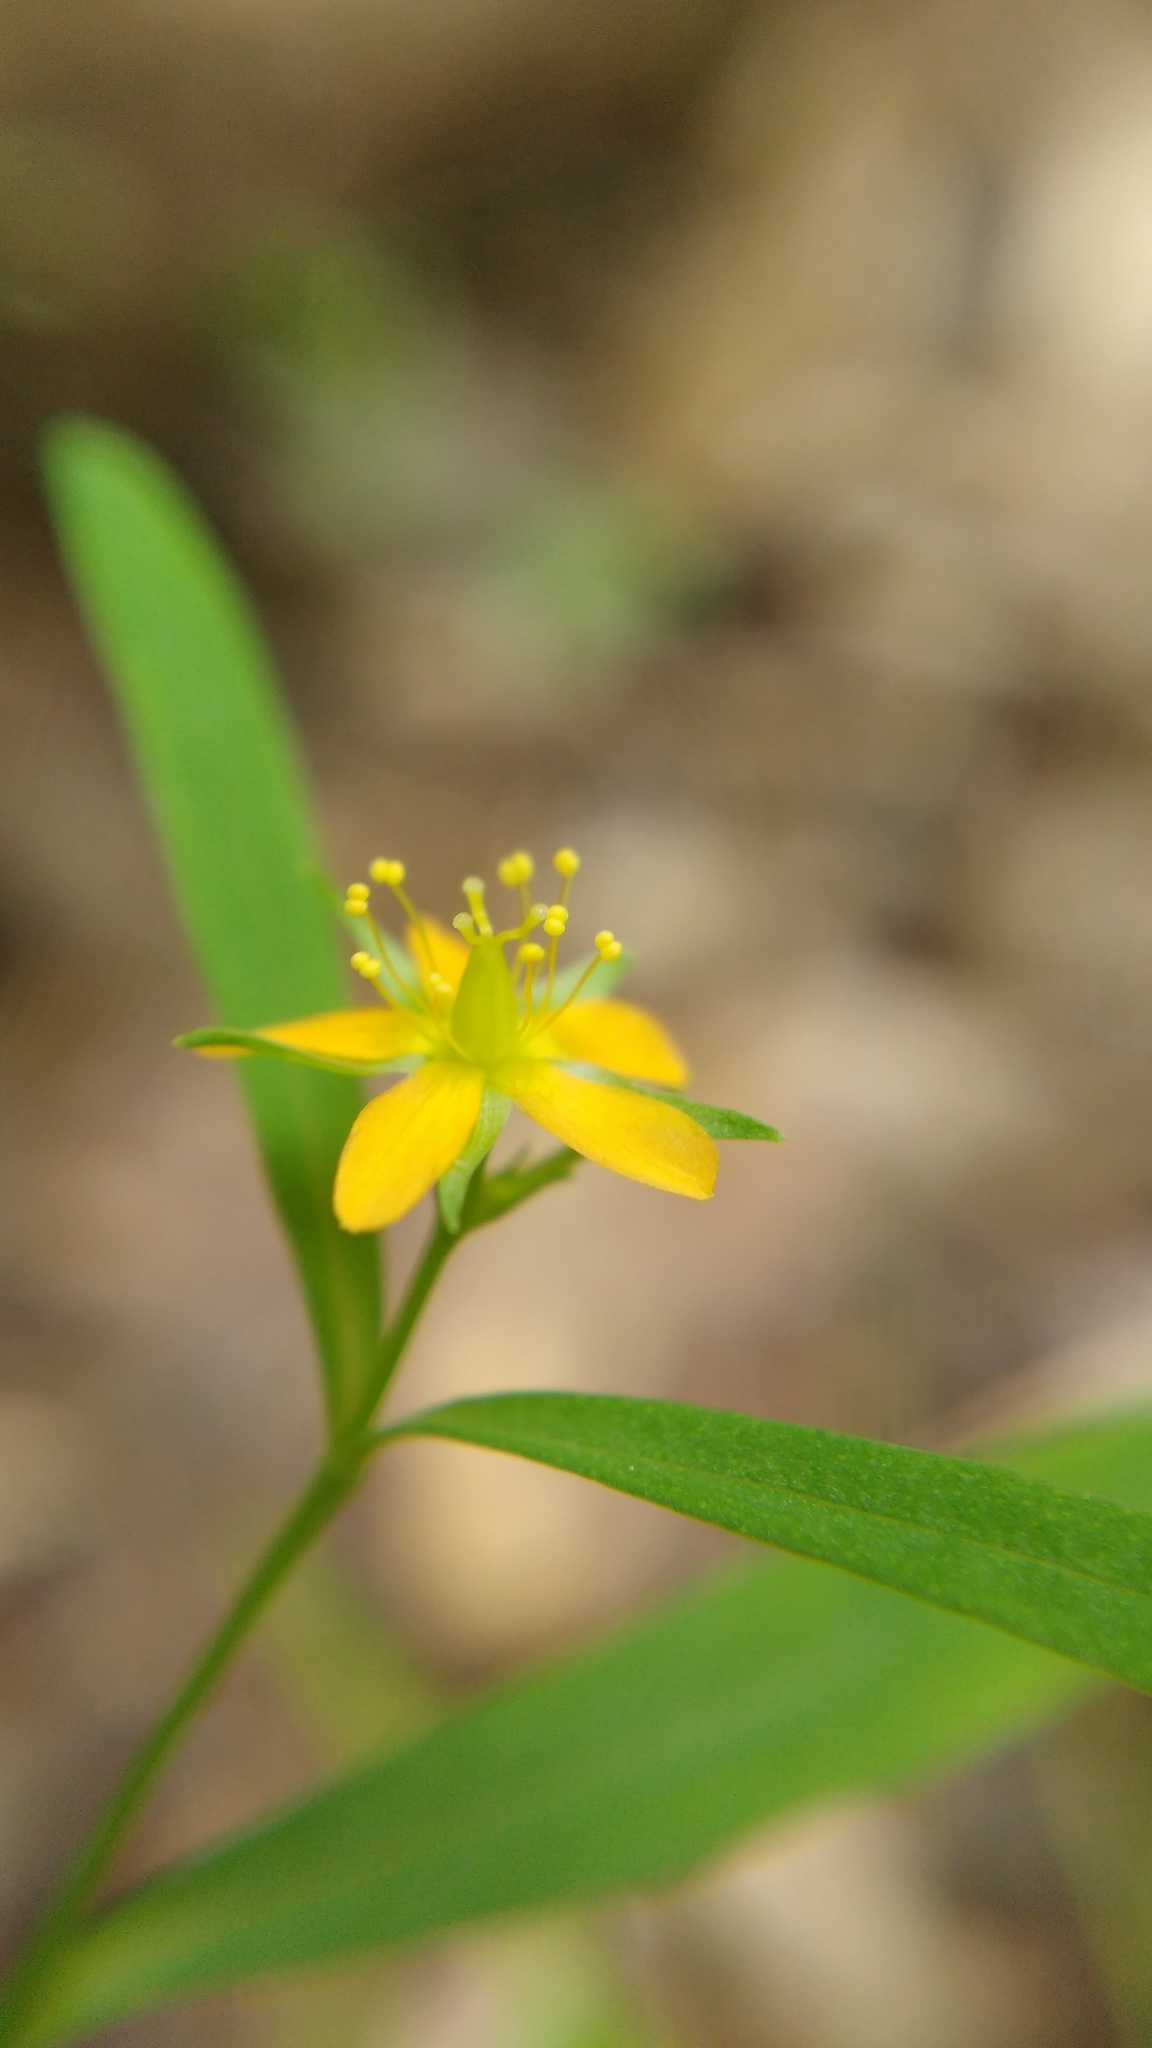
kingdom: Plantae
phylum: Tracheophyta
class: Magnoliopsida
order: Malpighiales
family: Hypericaceae
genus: Hypericum
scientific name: Hypericum canadense
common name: Irish st. john's-wort
